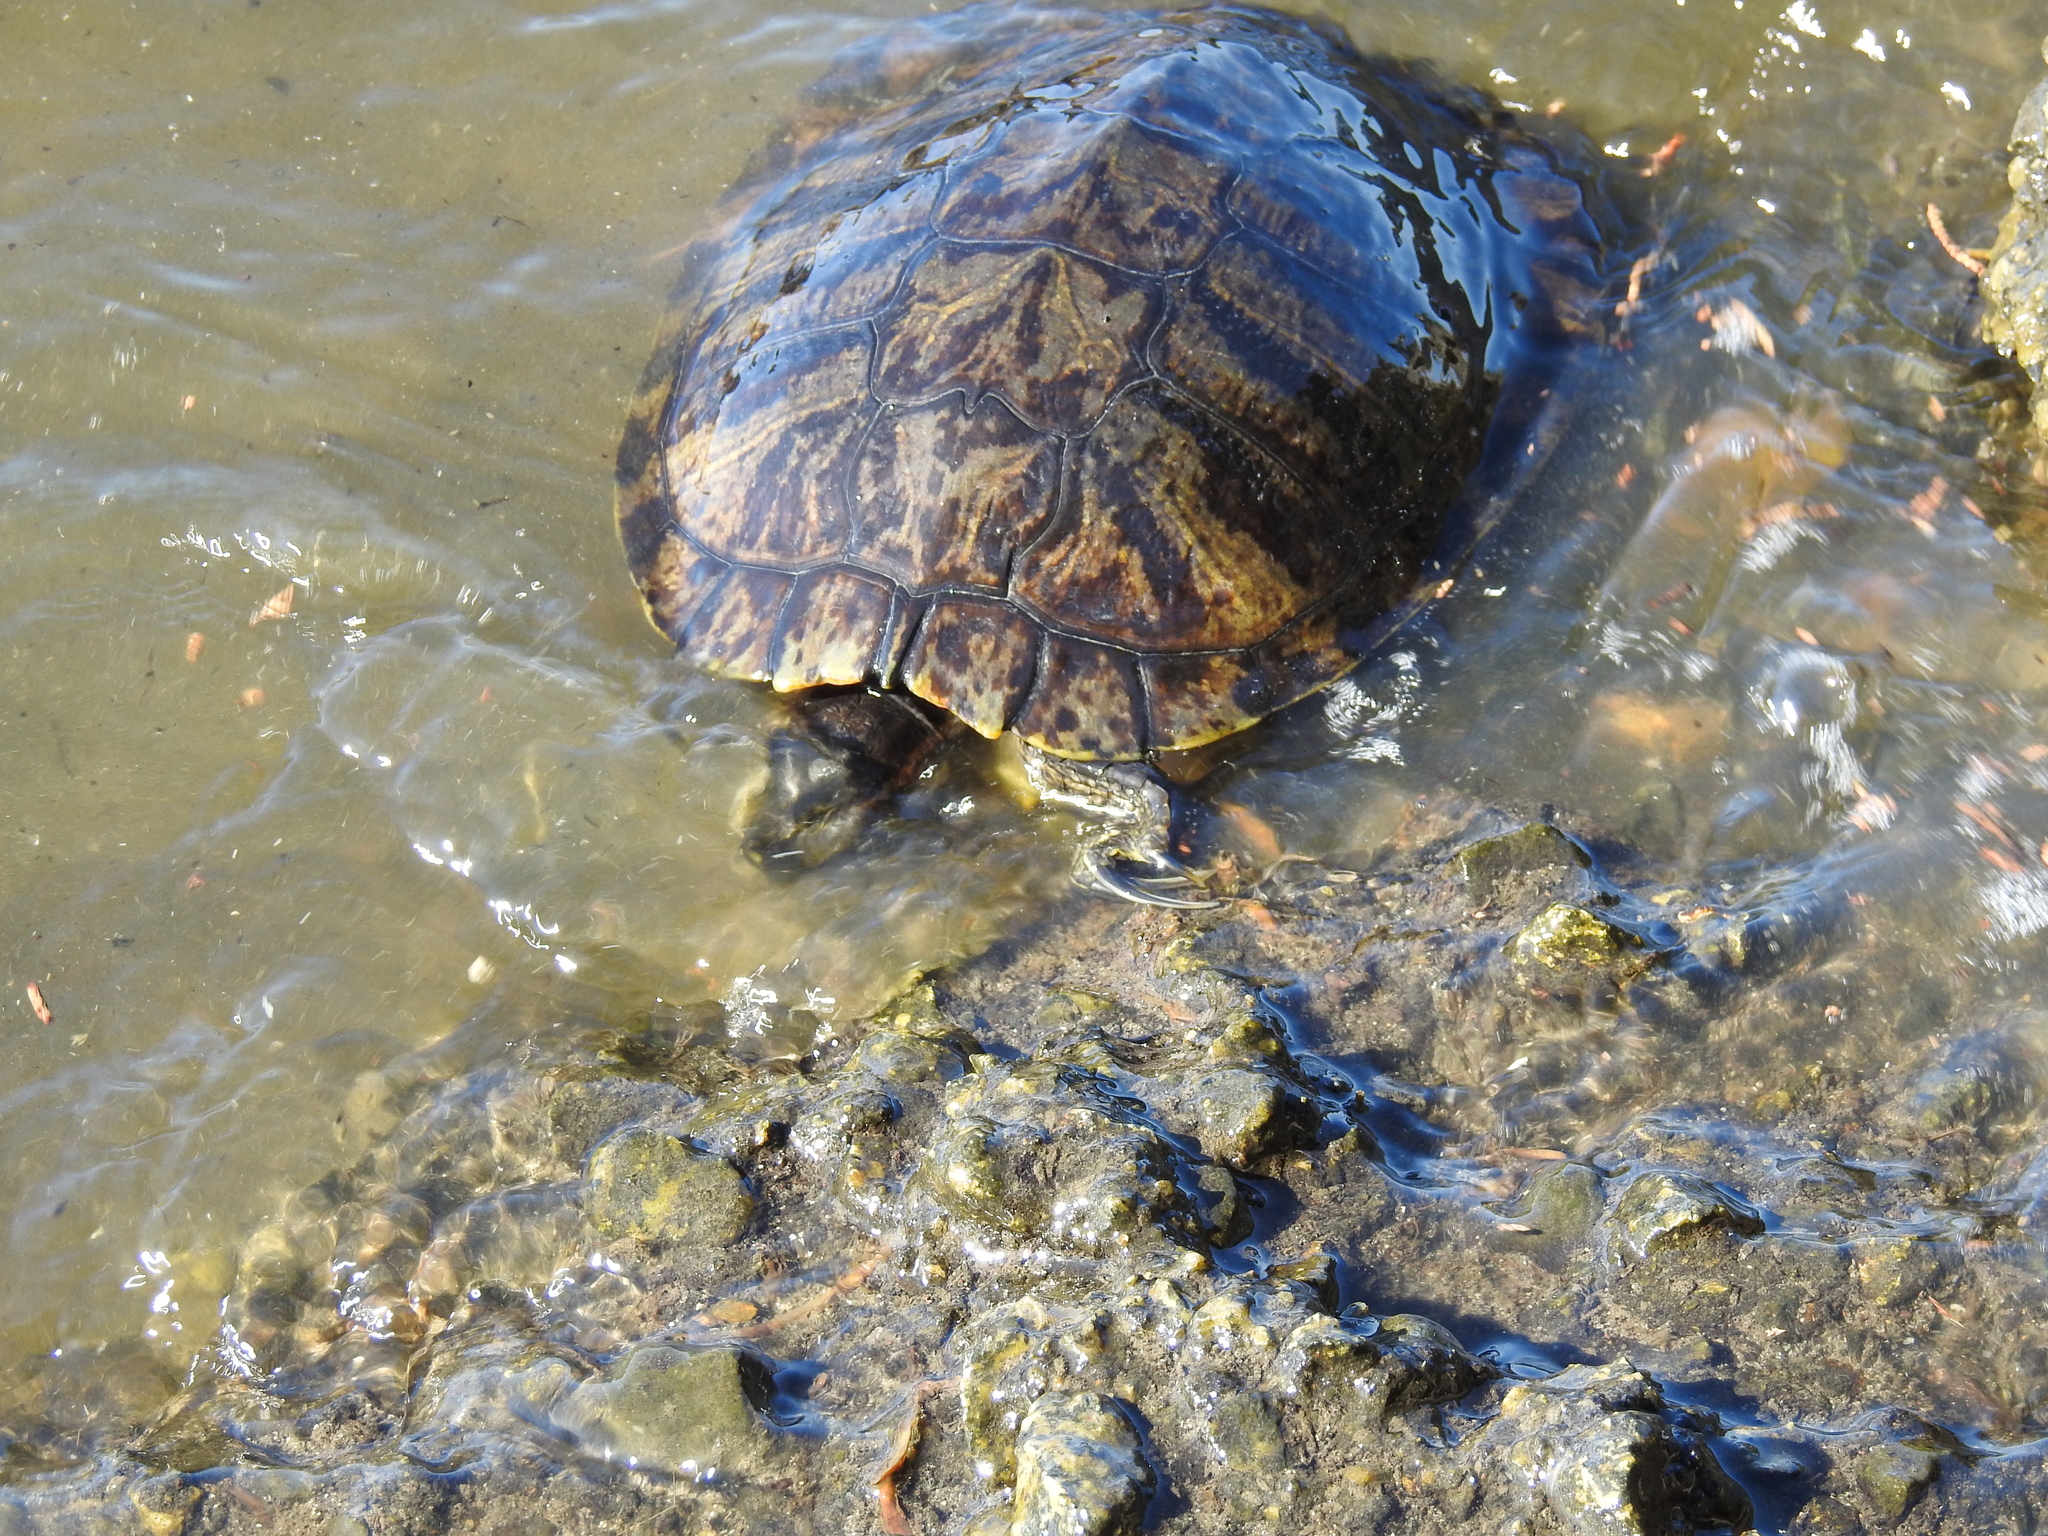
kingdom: Animalia
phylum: Chordata
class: Testudines
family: Emydidae
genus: Trachemys
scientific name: Trachemys scripta
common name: Slider
